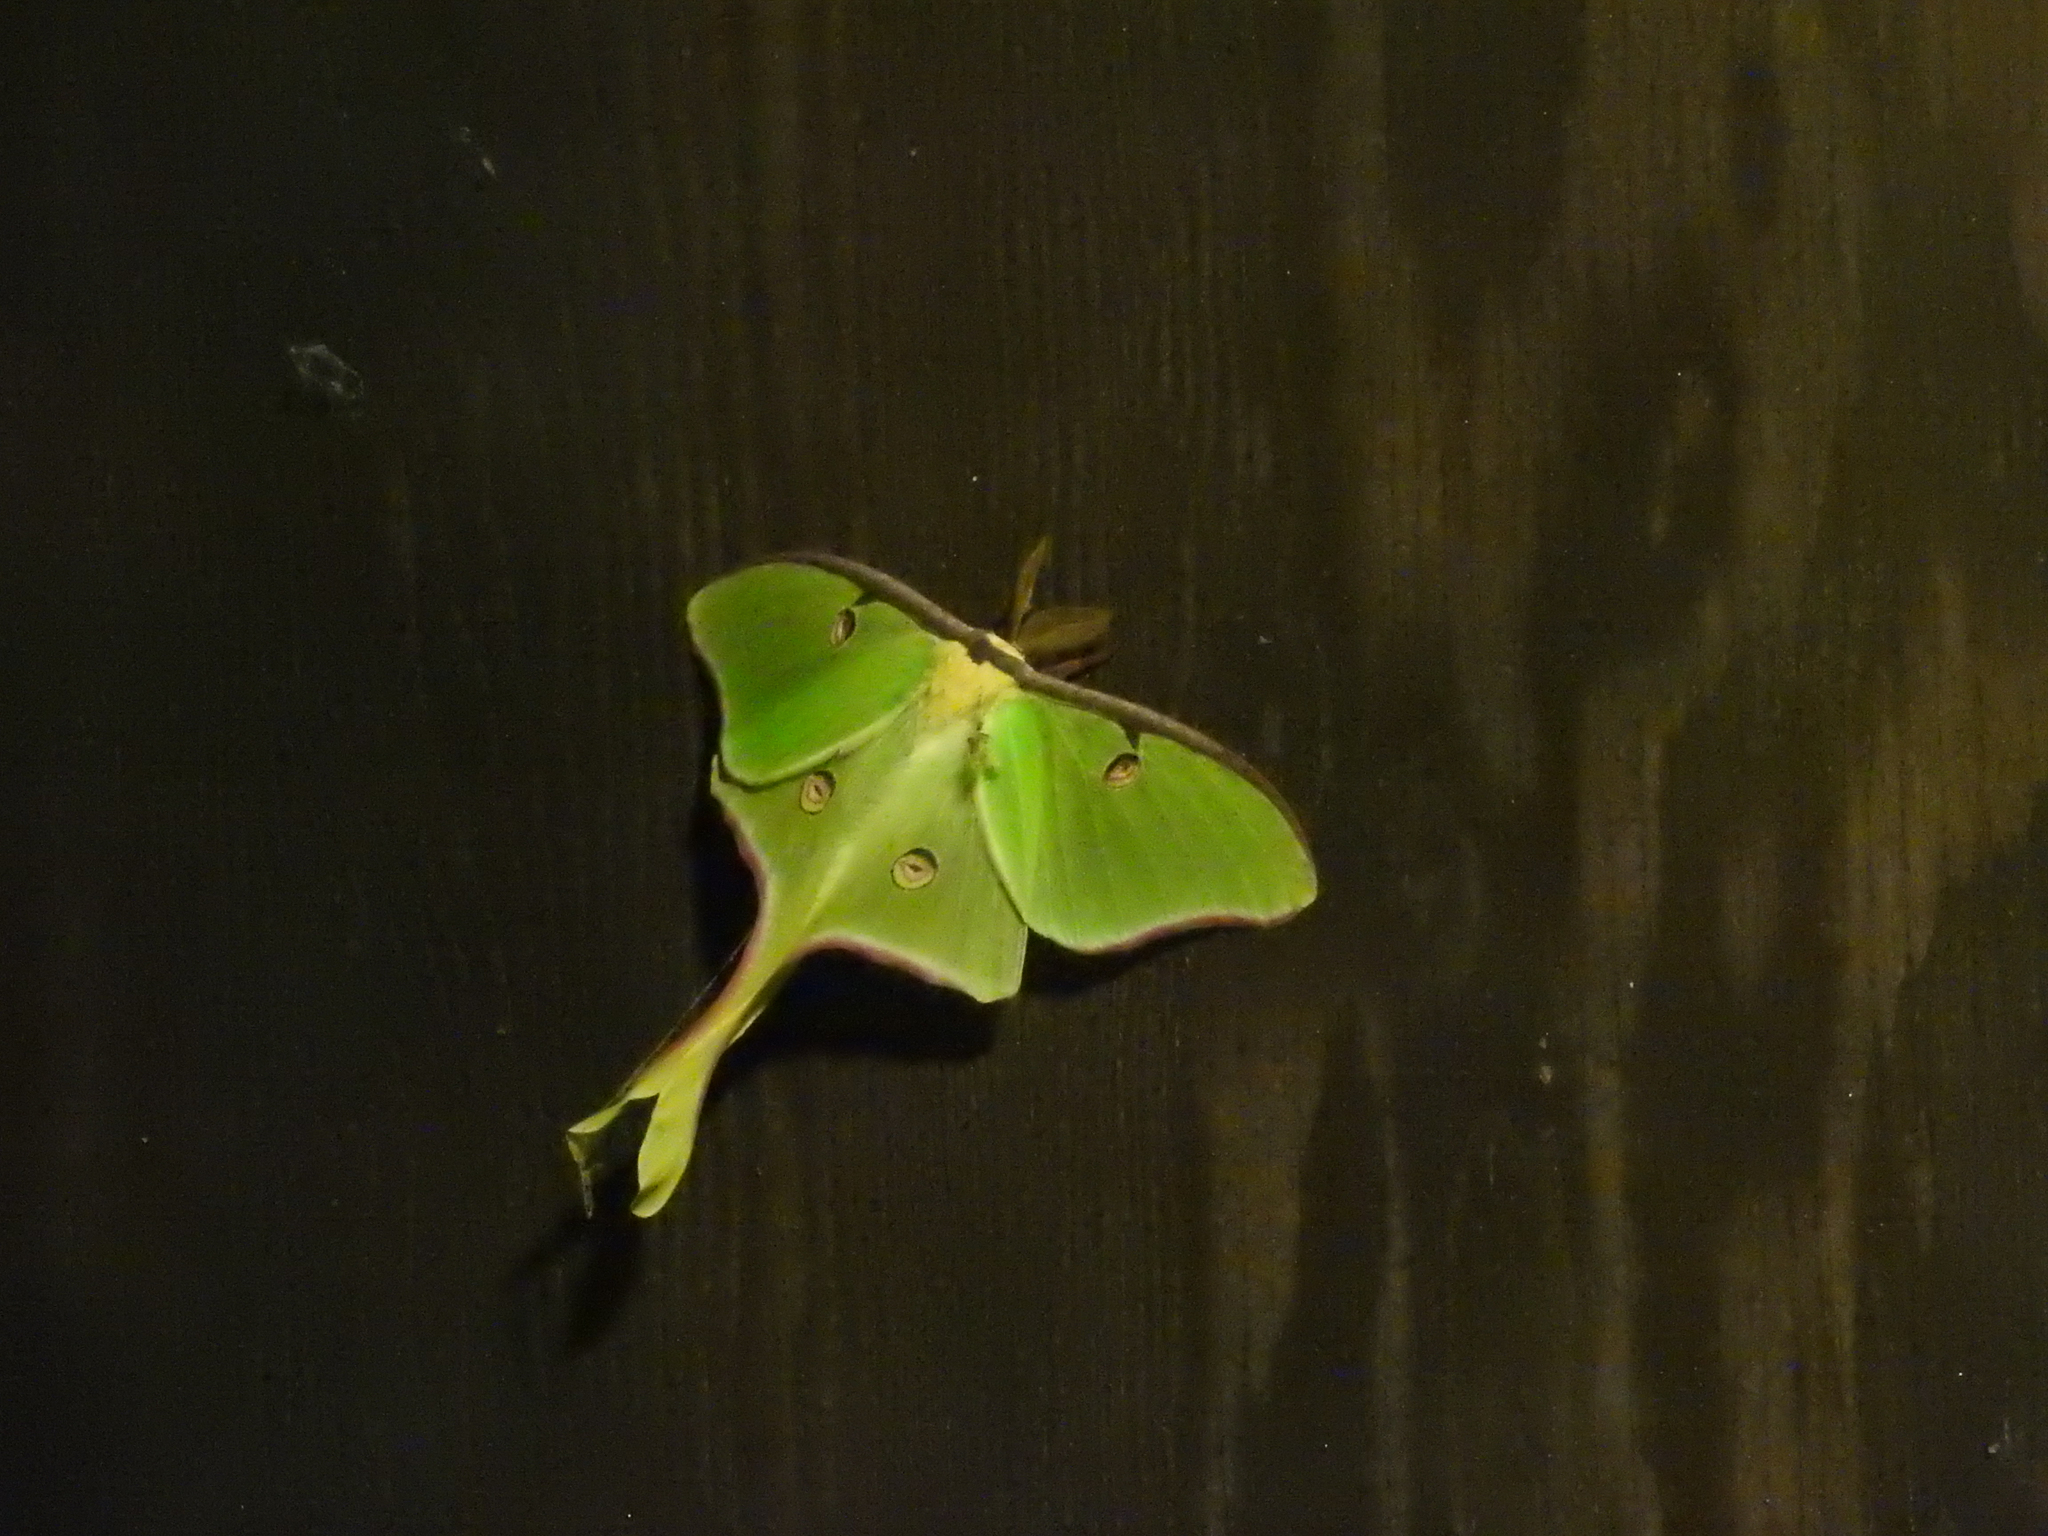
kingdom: Animalia
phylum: Arthropoda
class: Insecta
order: Lepidoptera
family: Saturniidae
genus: Actias
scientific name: Actias luna
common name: Luna moth
